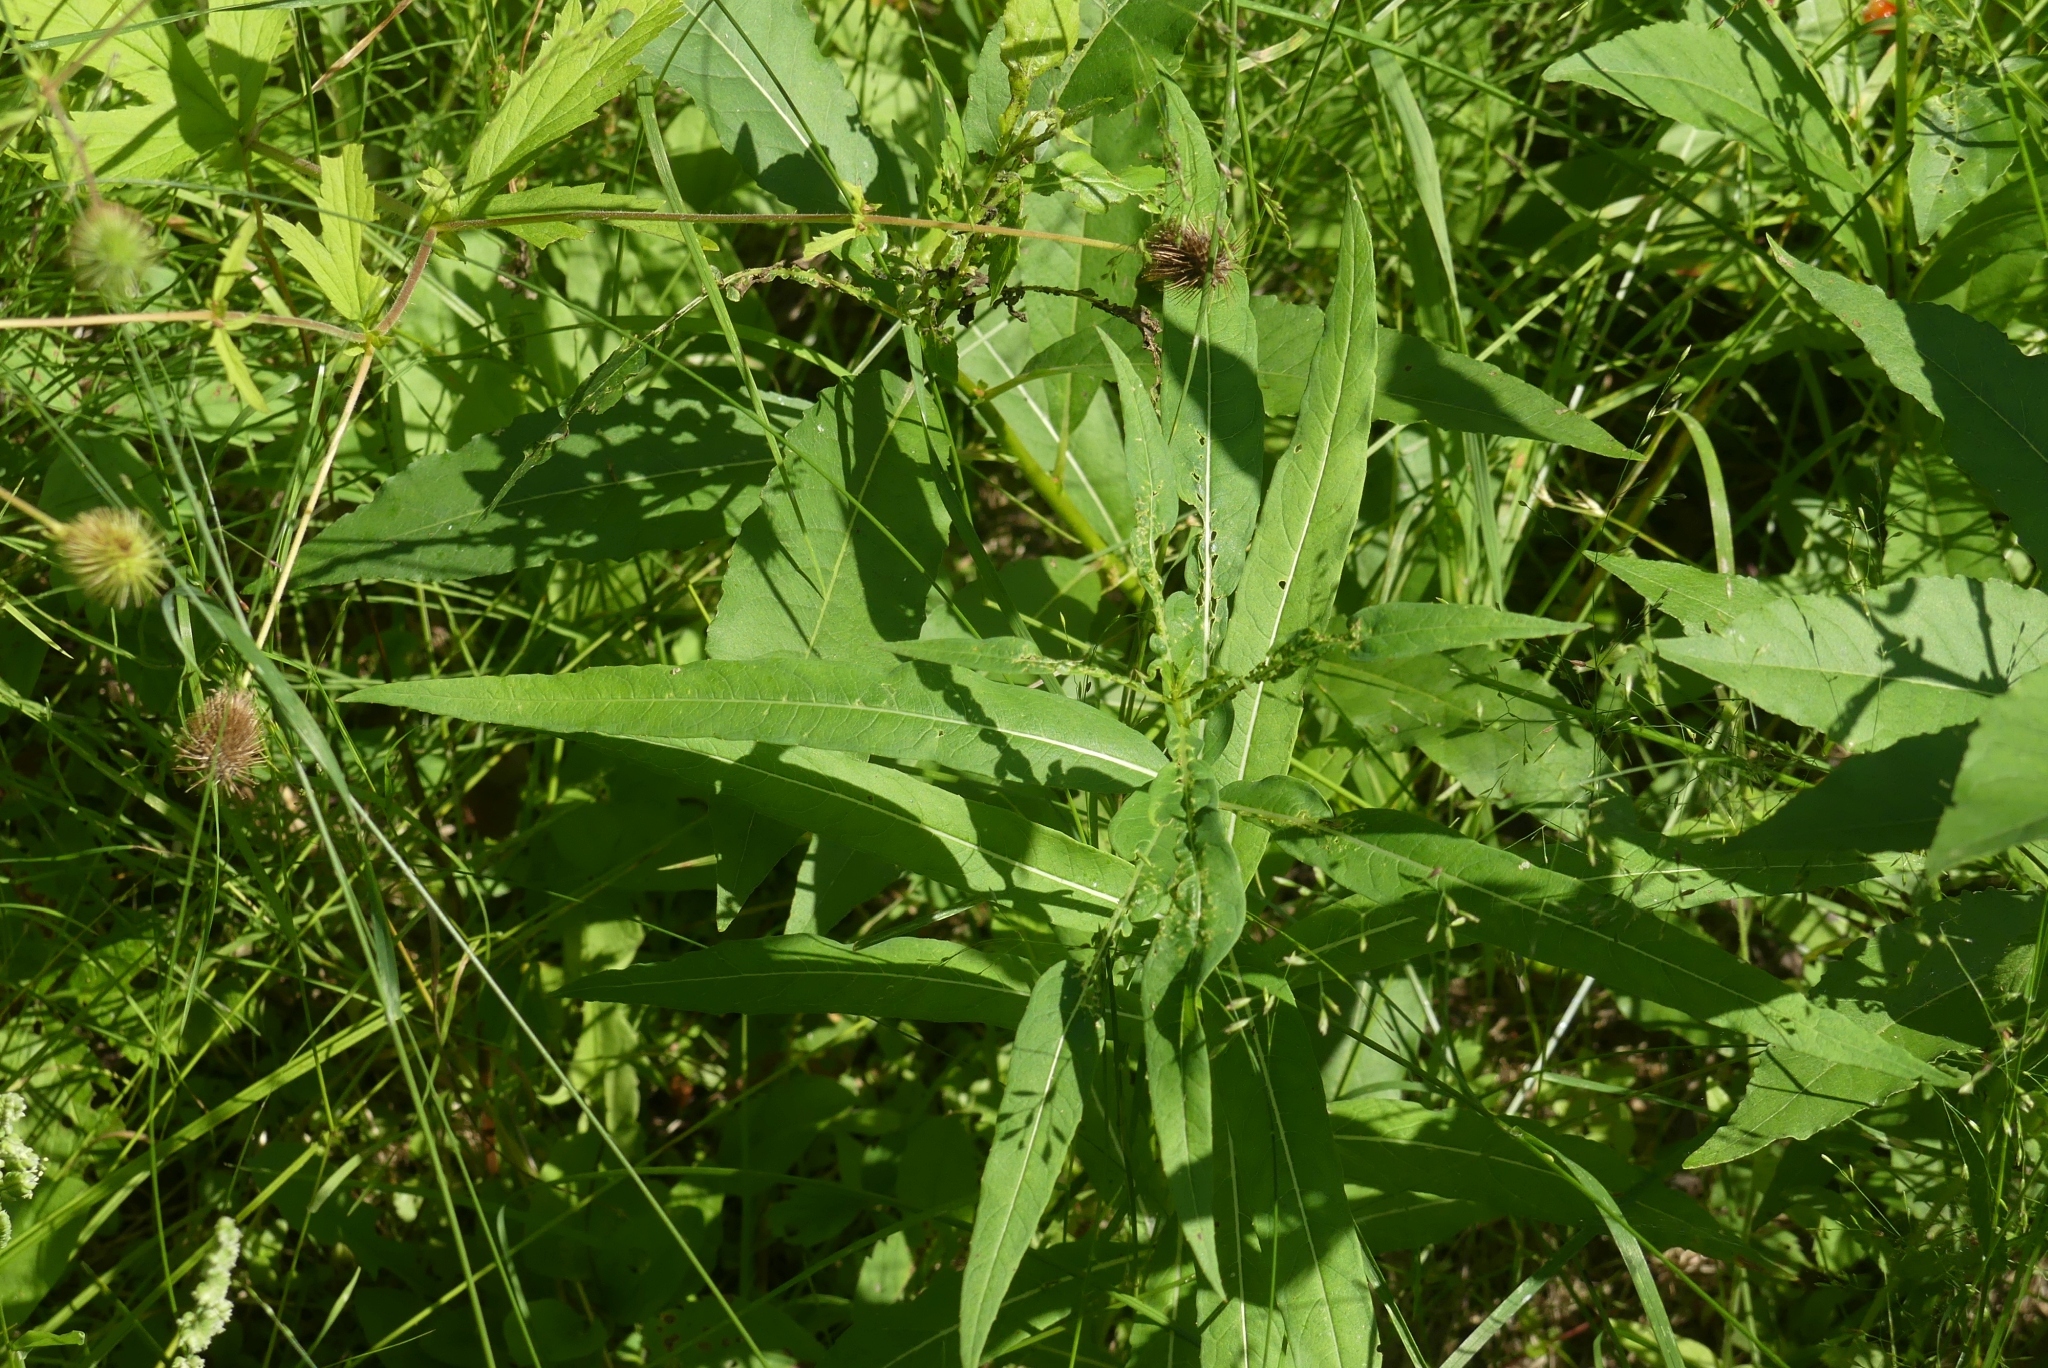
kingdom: Plantae
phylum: Tracheophyta
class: Magnoliopsida
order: Myrtales
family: Onagraceae
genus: Chamaenerion
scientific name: Chamaenerion angustifolium
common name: Fireweed
